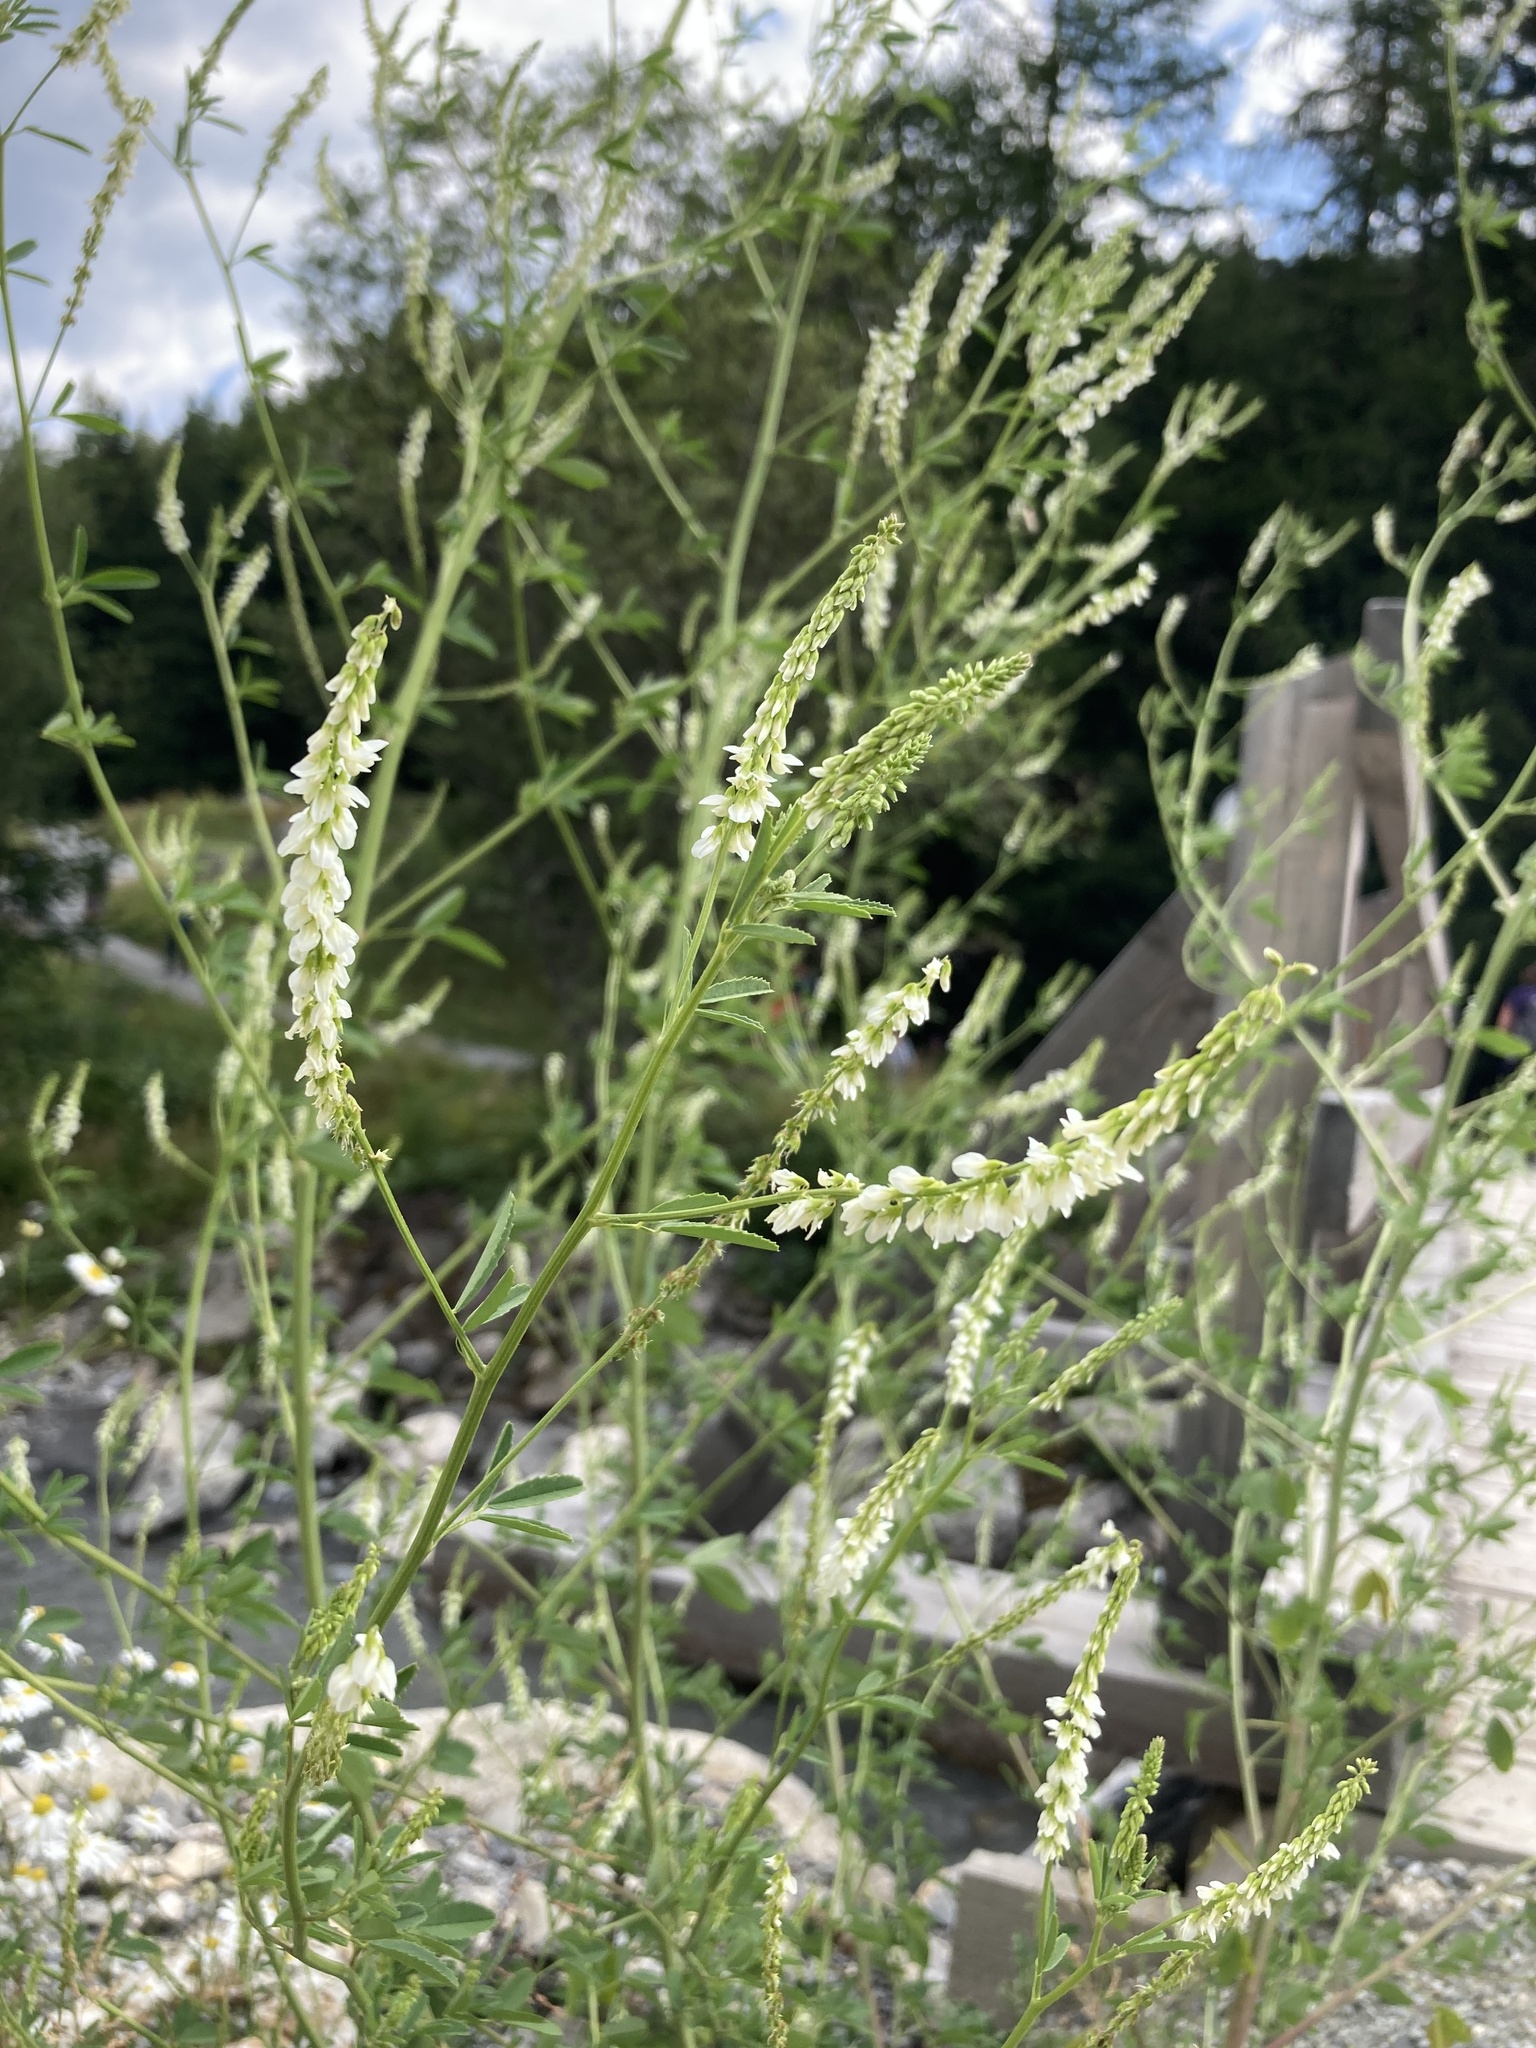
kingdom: Plantae
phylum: Tracheophyta
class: Magnoliopsida
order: Fabales
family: Fabaceae
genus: Melilotus
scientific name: Melilotus albus
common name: White melilot
